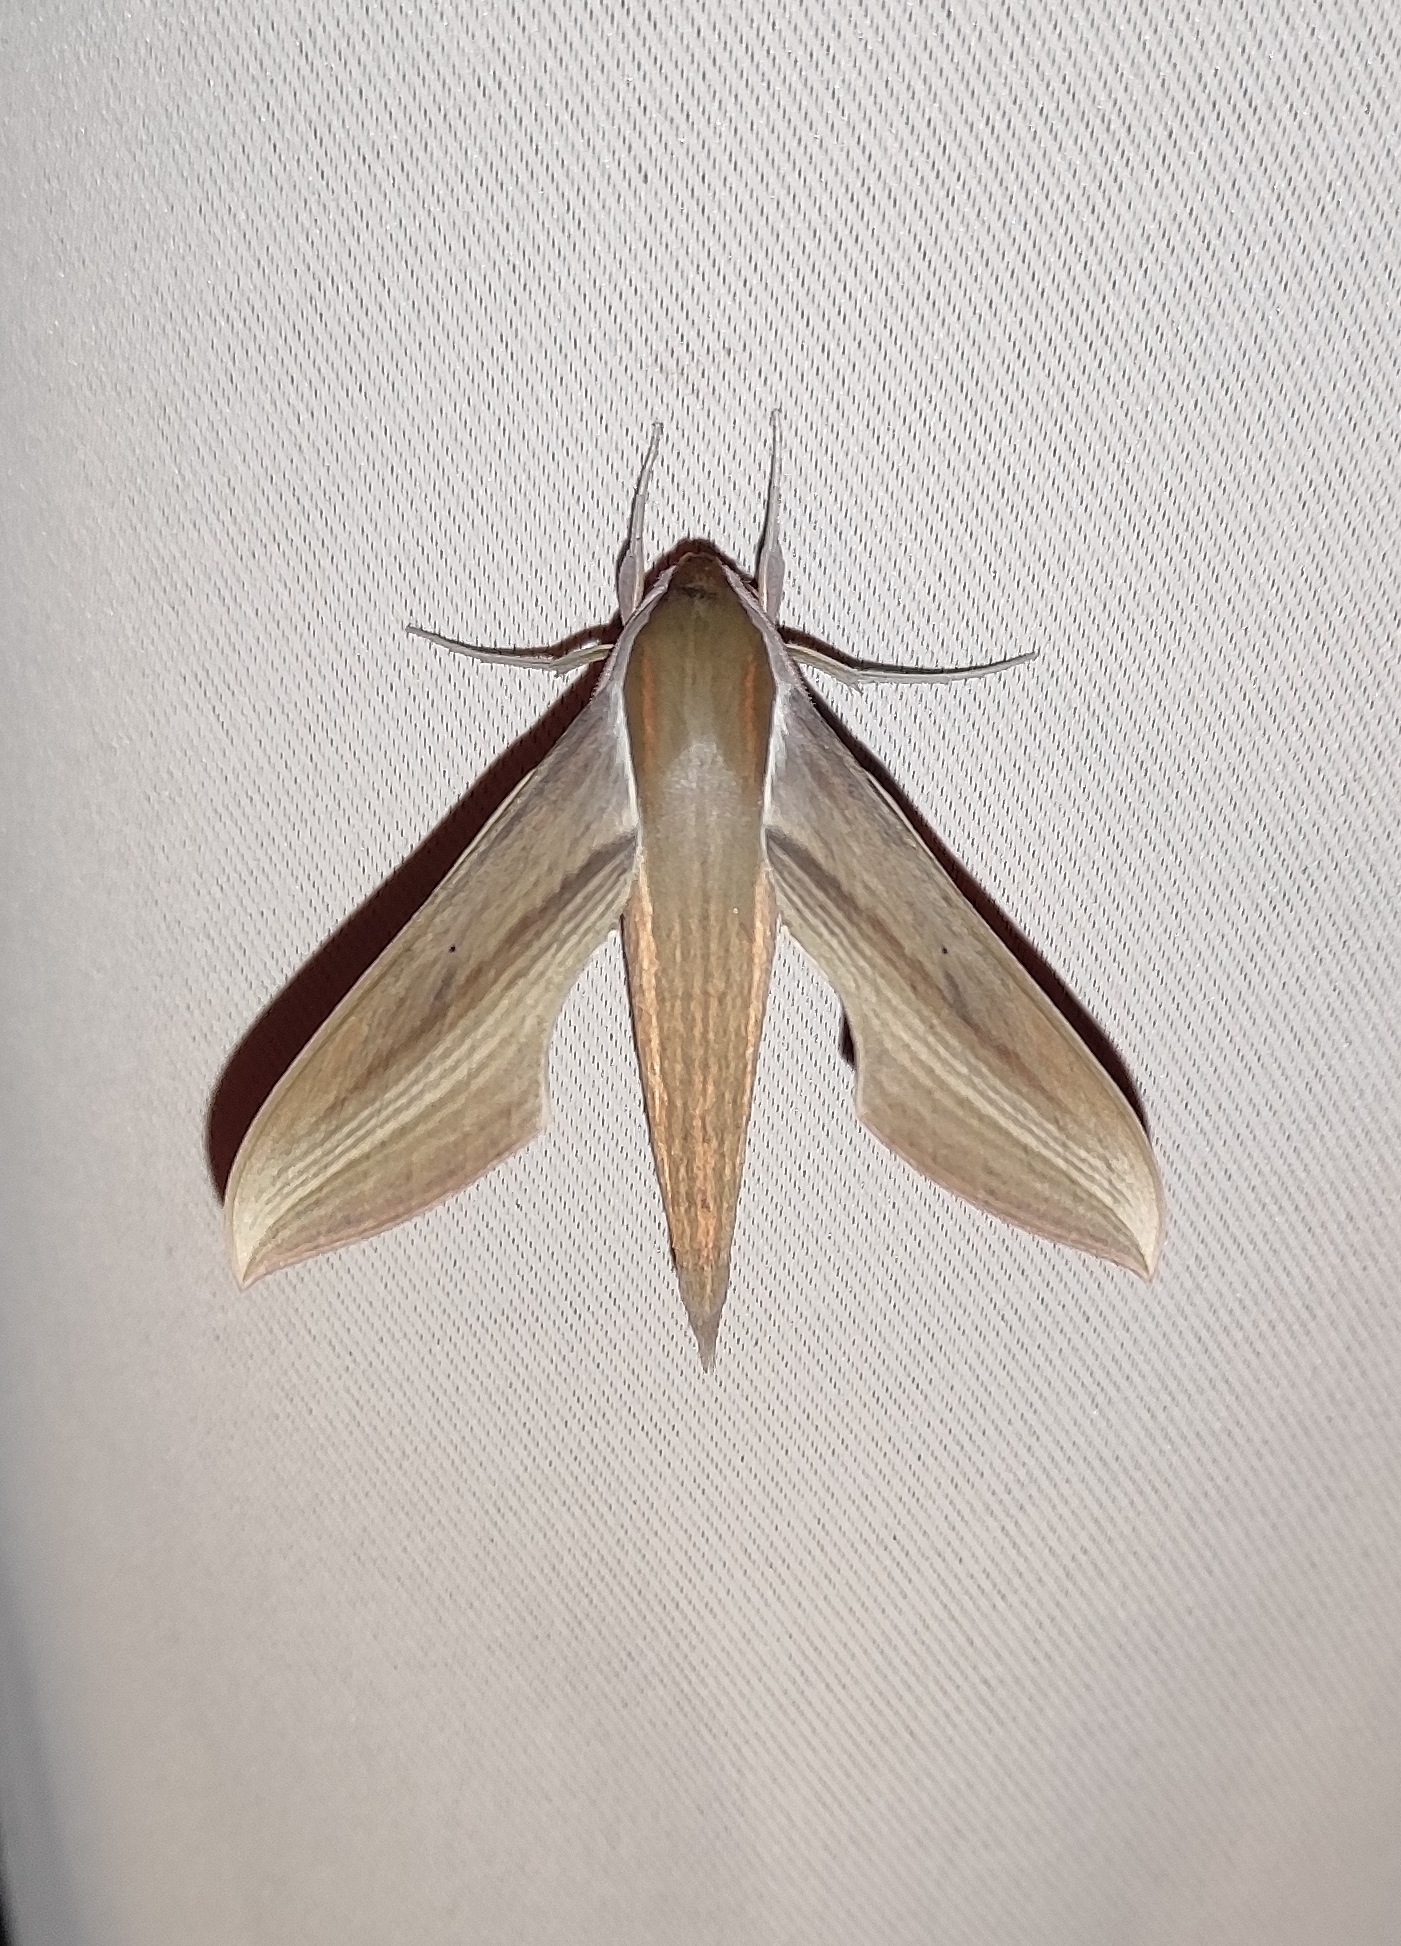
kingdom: Animalia
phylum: Arthropoda
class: Insecta
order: Lepidoptera
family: Sphingidae
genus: Xylophanes
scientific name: Xylophanes tersa
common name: Tersa sphinx
